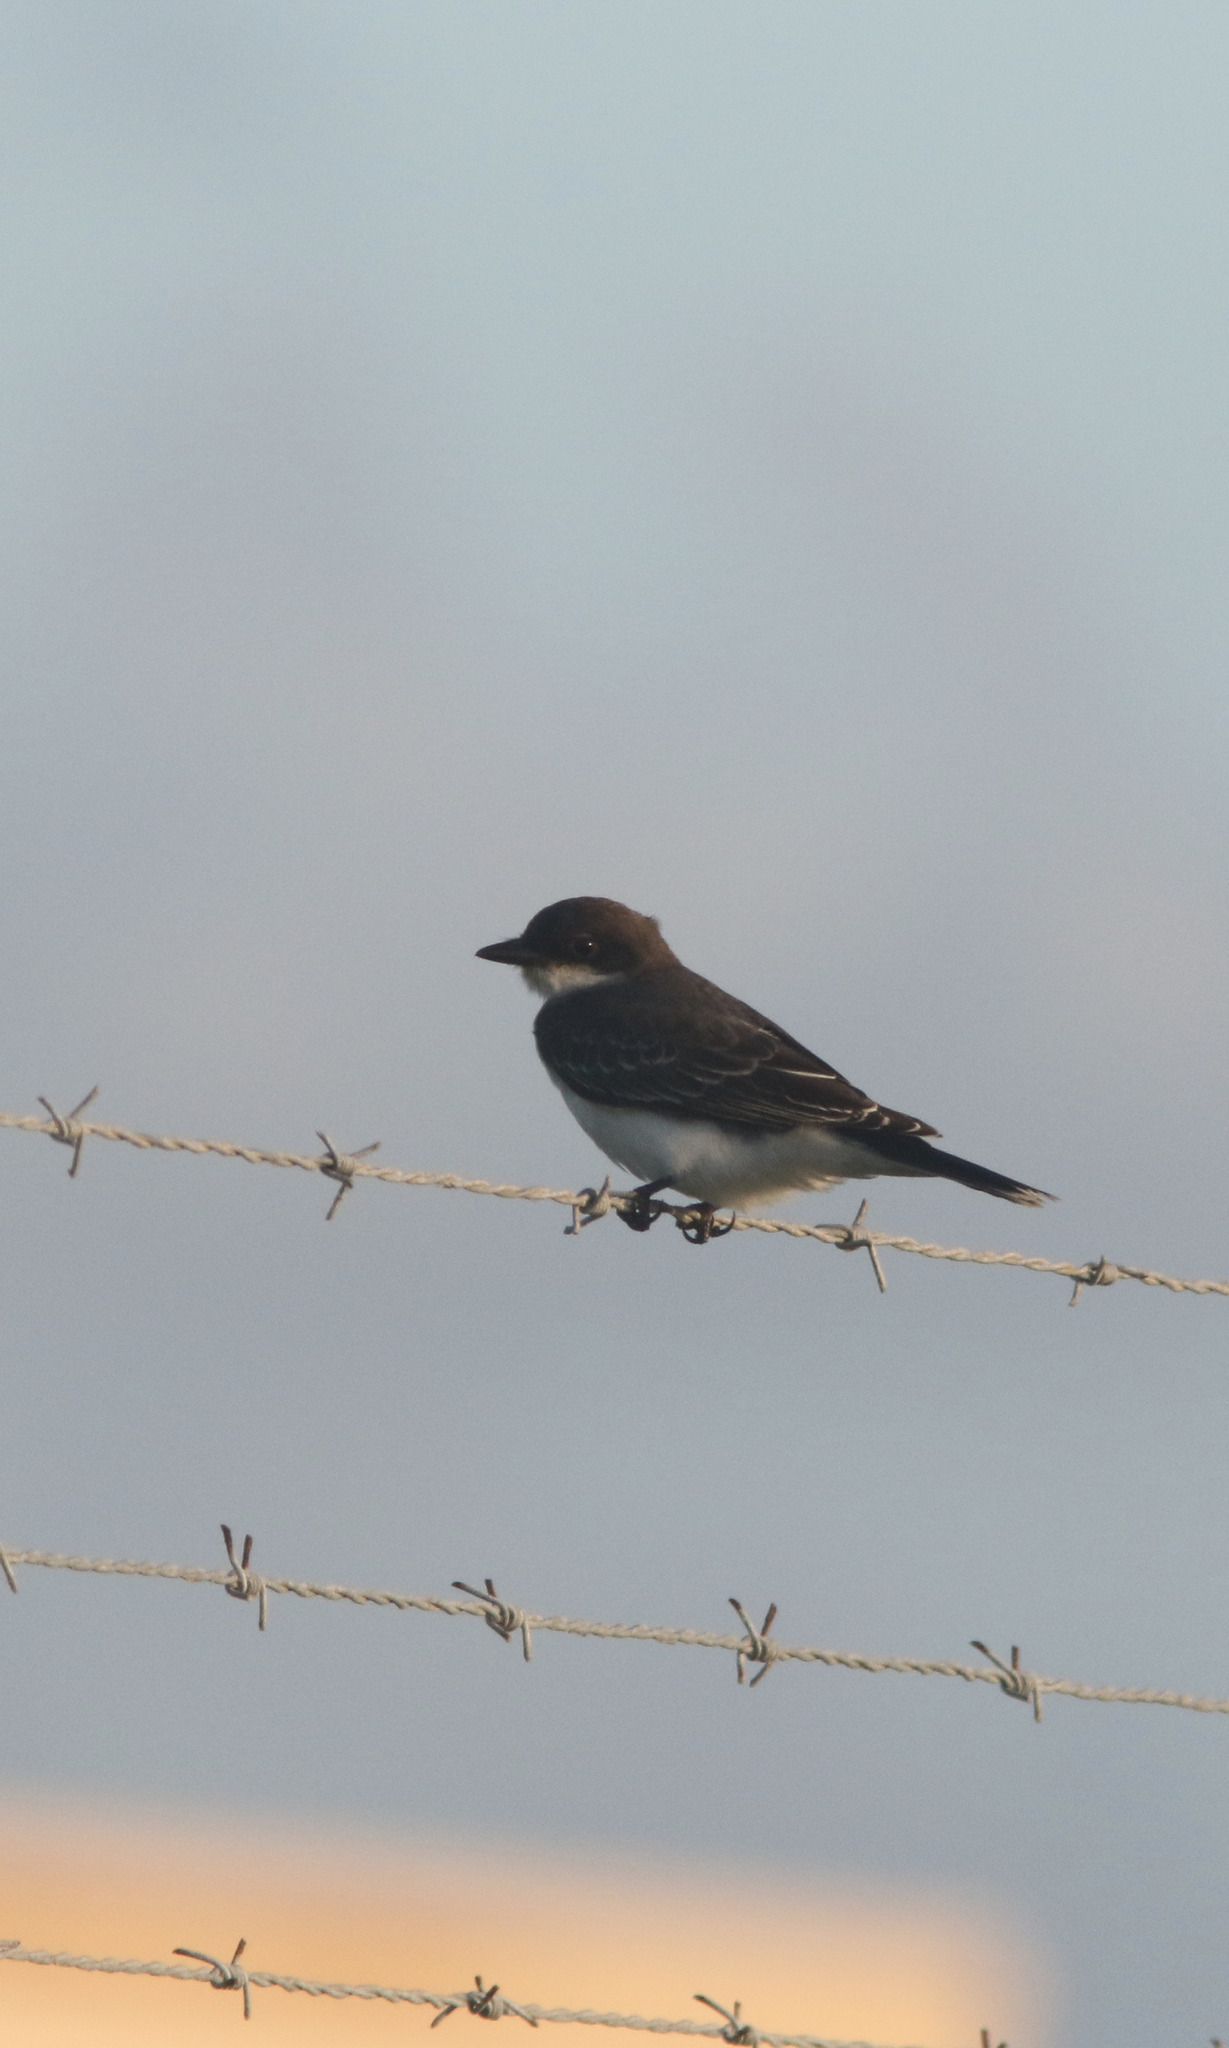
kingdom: Animalia
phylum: Chordata
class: Aves
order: Passeriformes
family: Tyrannidae
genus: Tyrannus
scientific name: Tyrannus tyrannus
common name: Eastern kingbird
